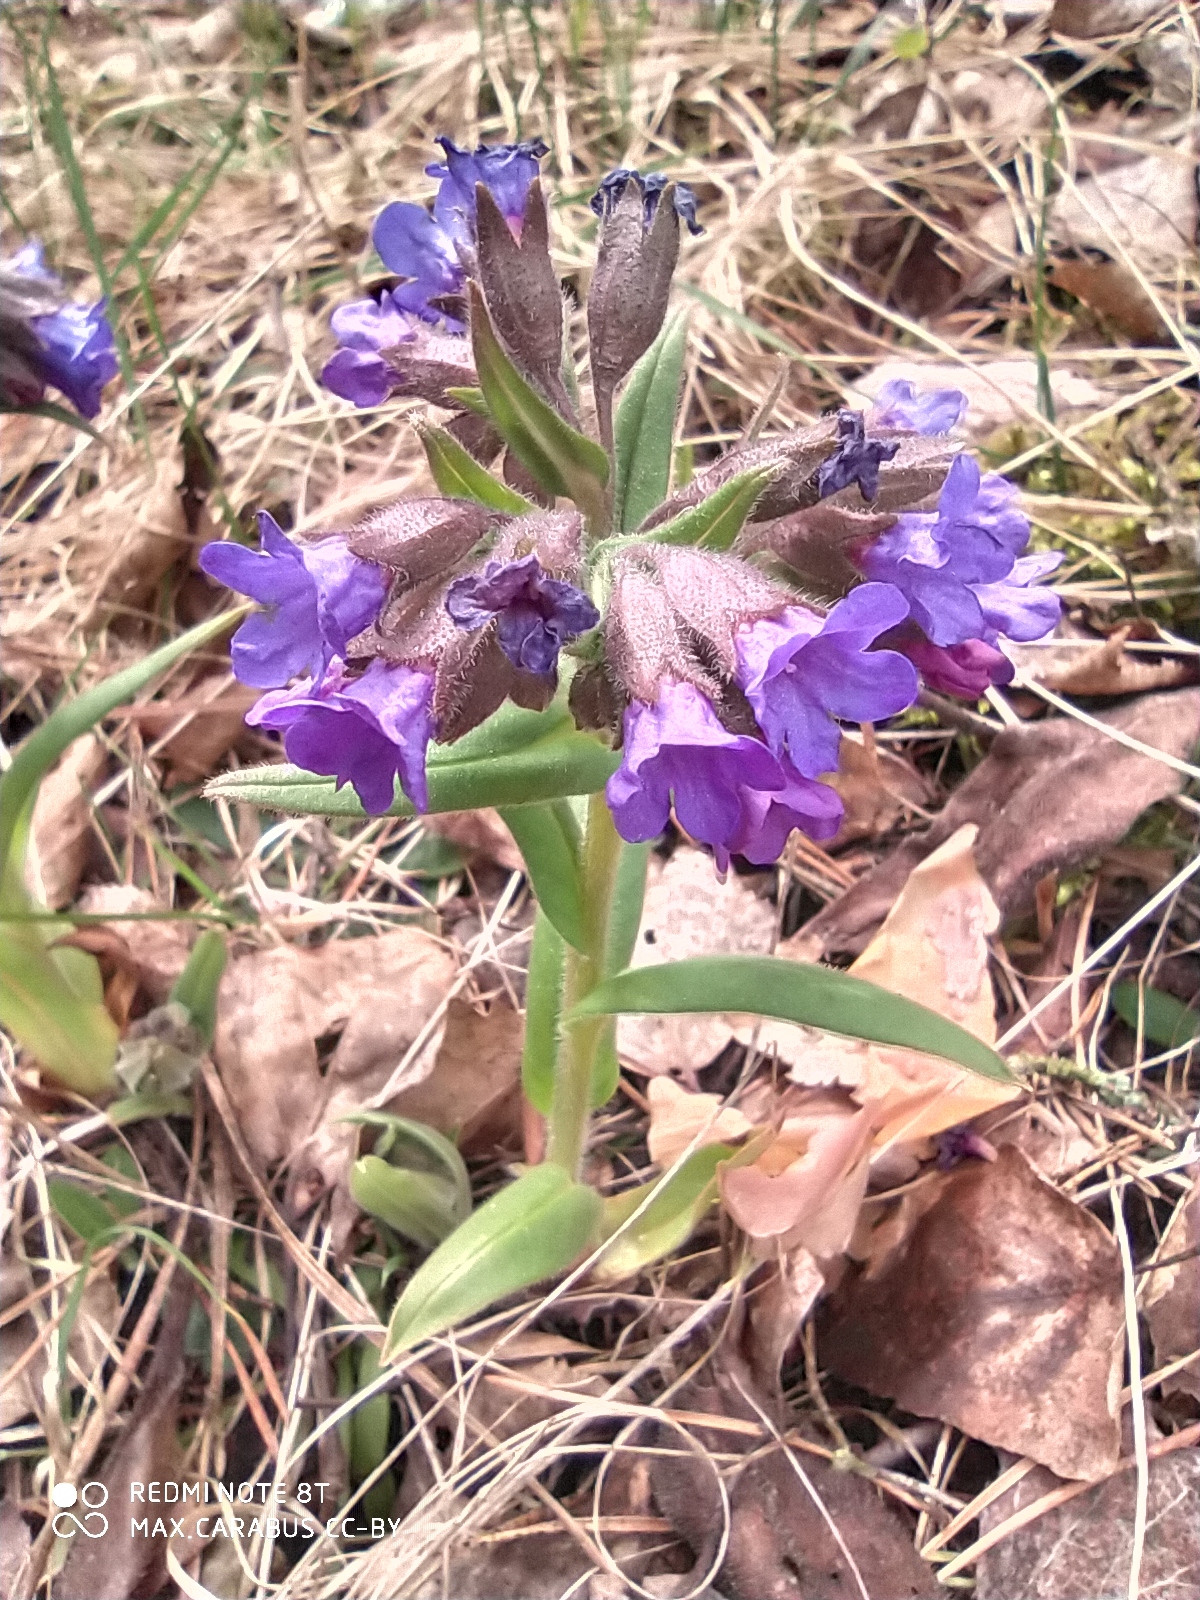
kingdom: Plantae
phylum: Tracheophyta
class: Magnoliopsida
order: Boraginales
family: Boraginaceae
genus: Pulmonaria
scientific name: Pulmonaria angustifolia
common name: Blue cowslip
